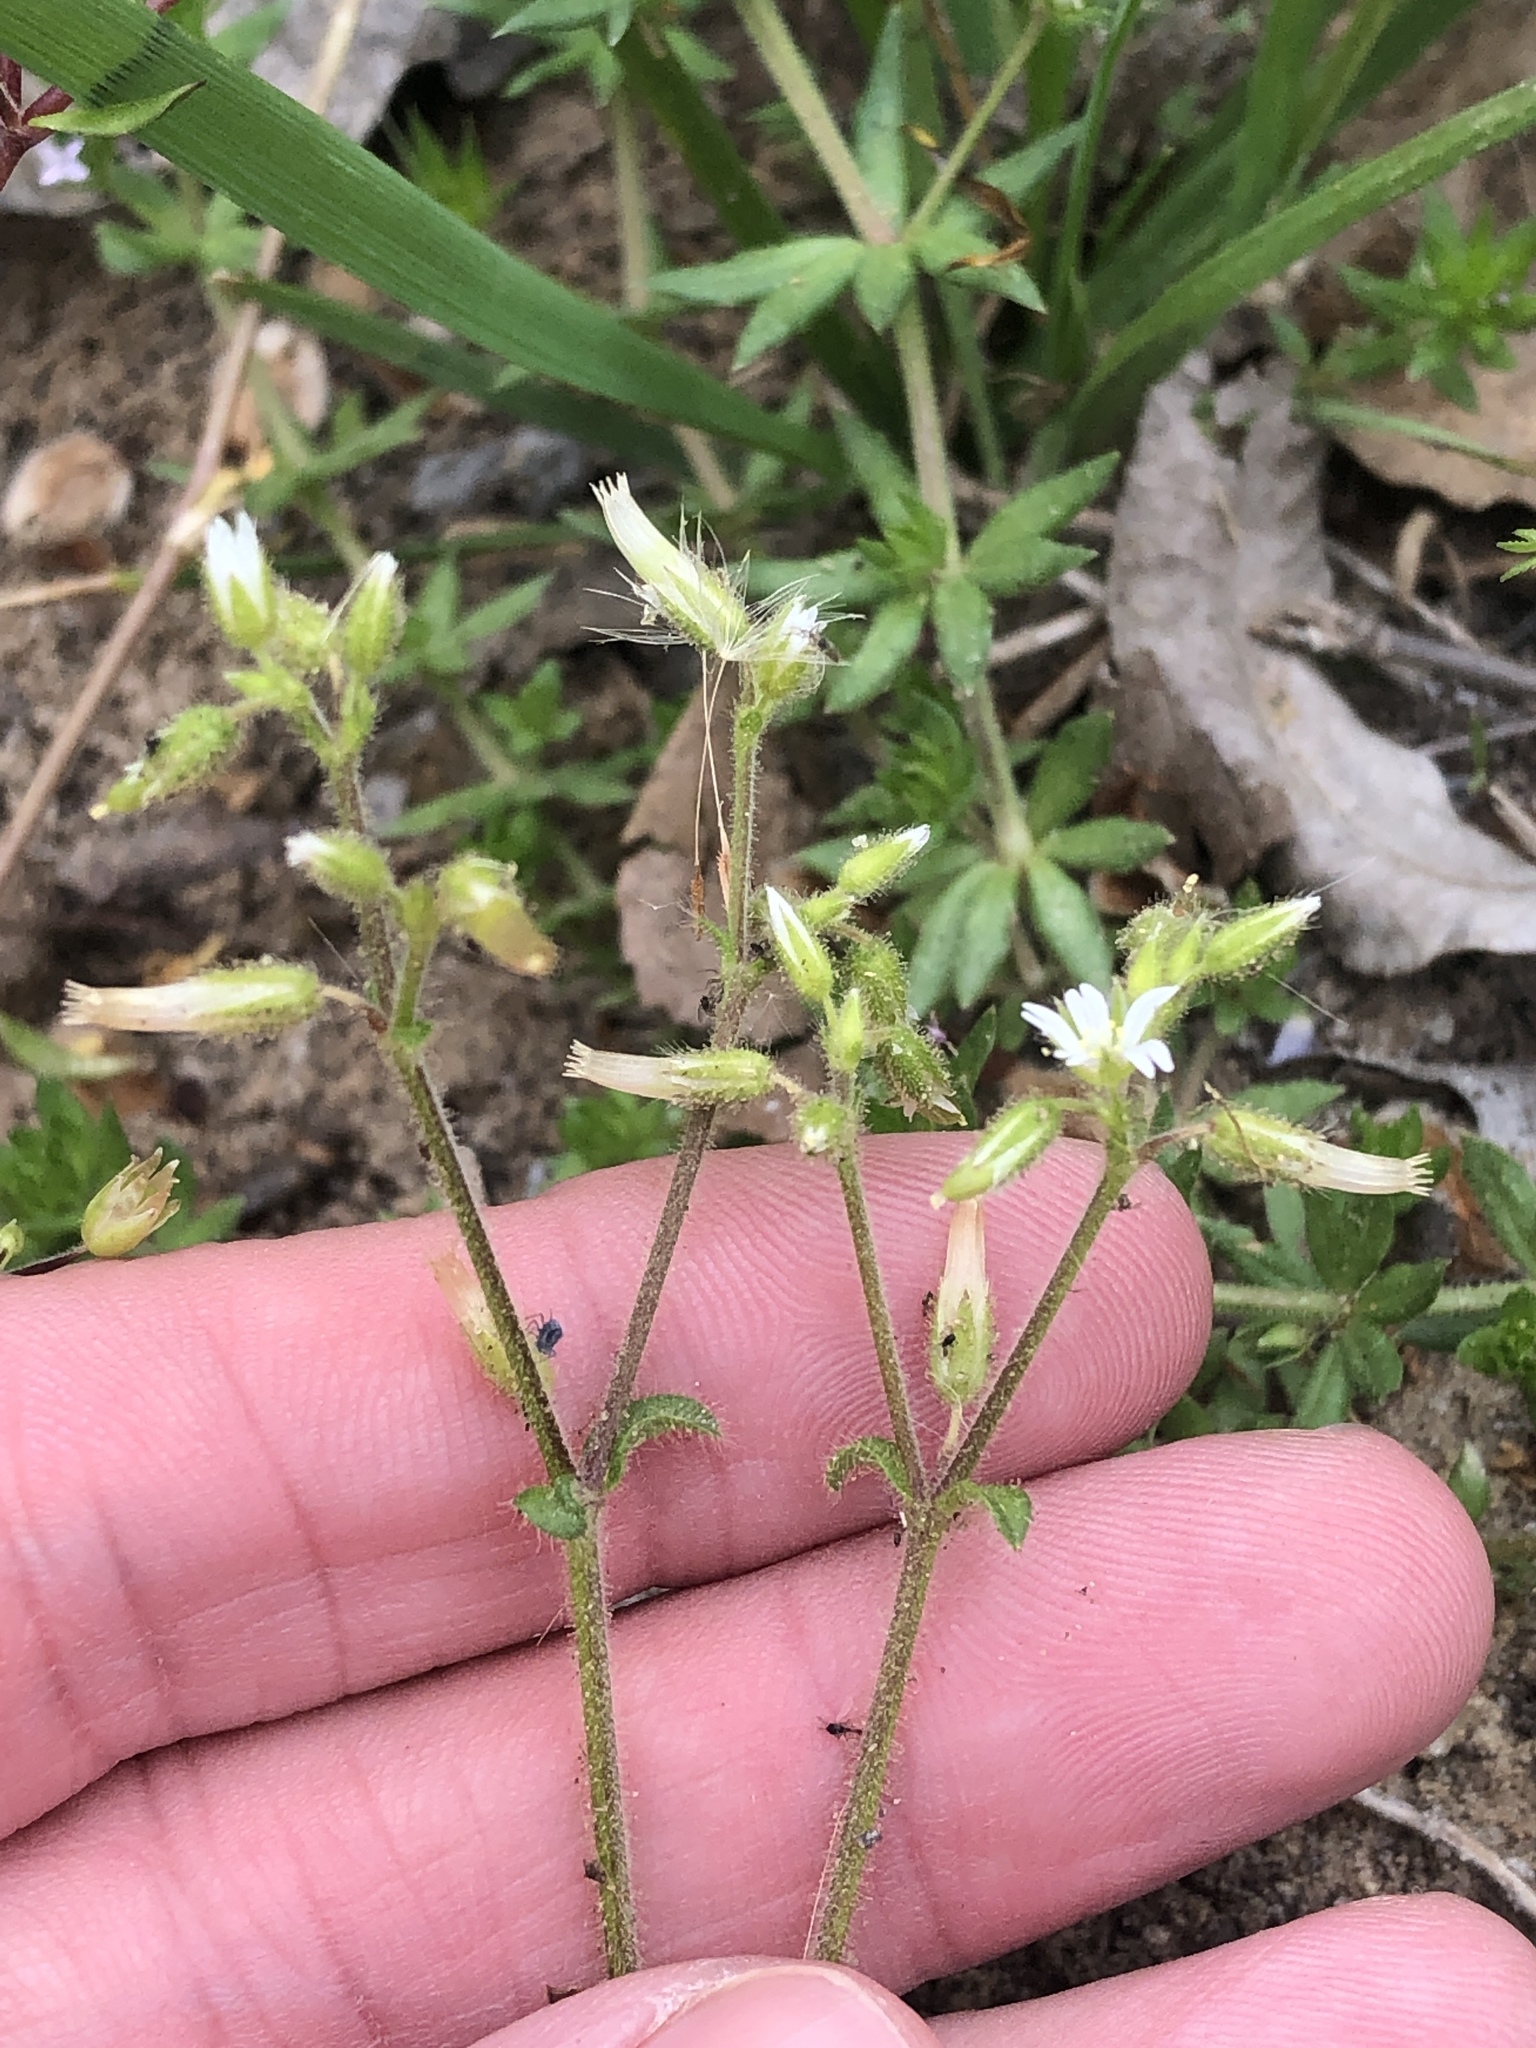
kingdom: Plantae
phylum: Tracheophyta
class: Magnoliopsida
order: Caryophyllales
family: Caryophyllaceae
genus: Cerastium
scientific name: Cerastium glomeratum
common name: Sticky chickweed
